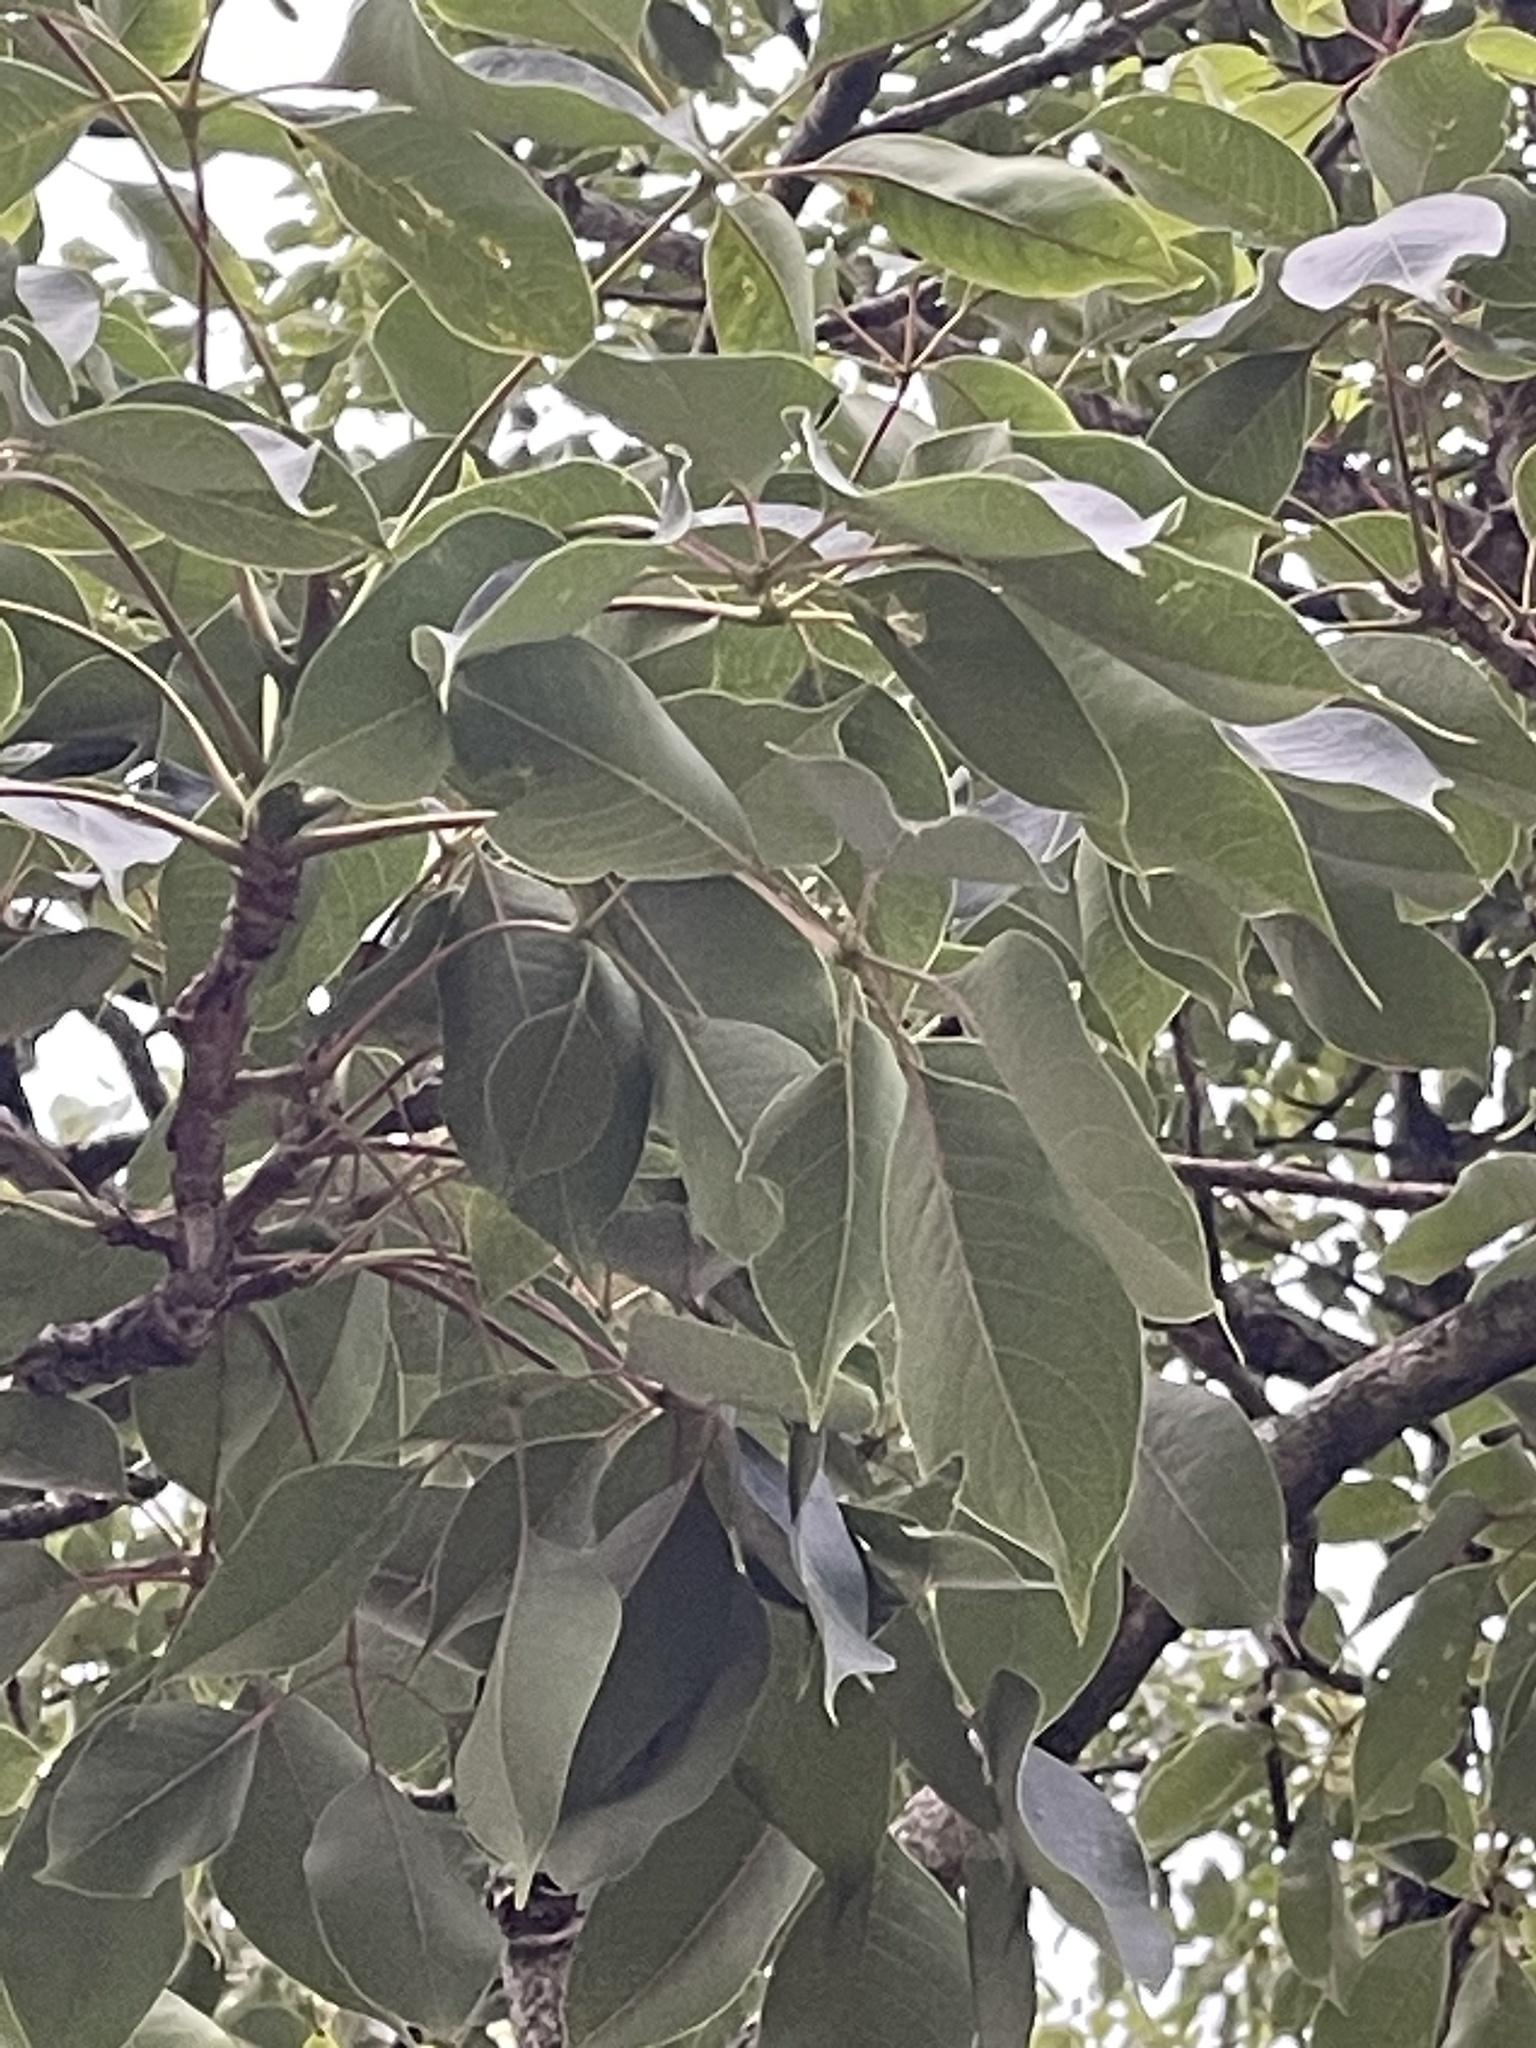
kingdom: Plantae
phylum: Tracheophyta
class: Magnoliopsida
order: Malvales
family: Malvaceae
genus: Bombax
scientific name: Bombax ceiba
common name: Northern-cottonwood
